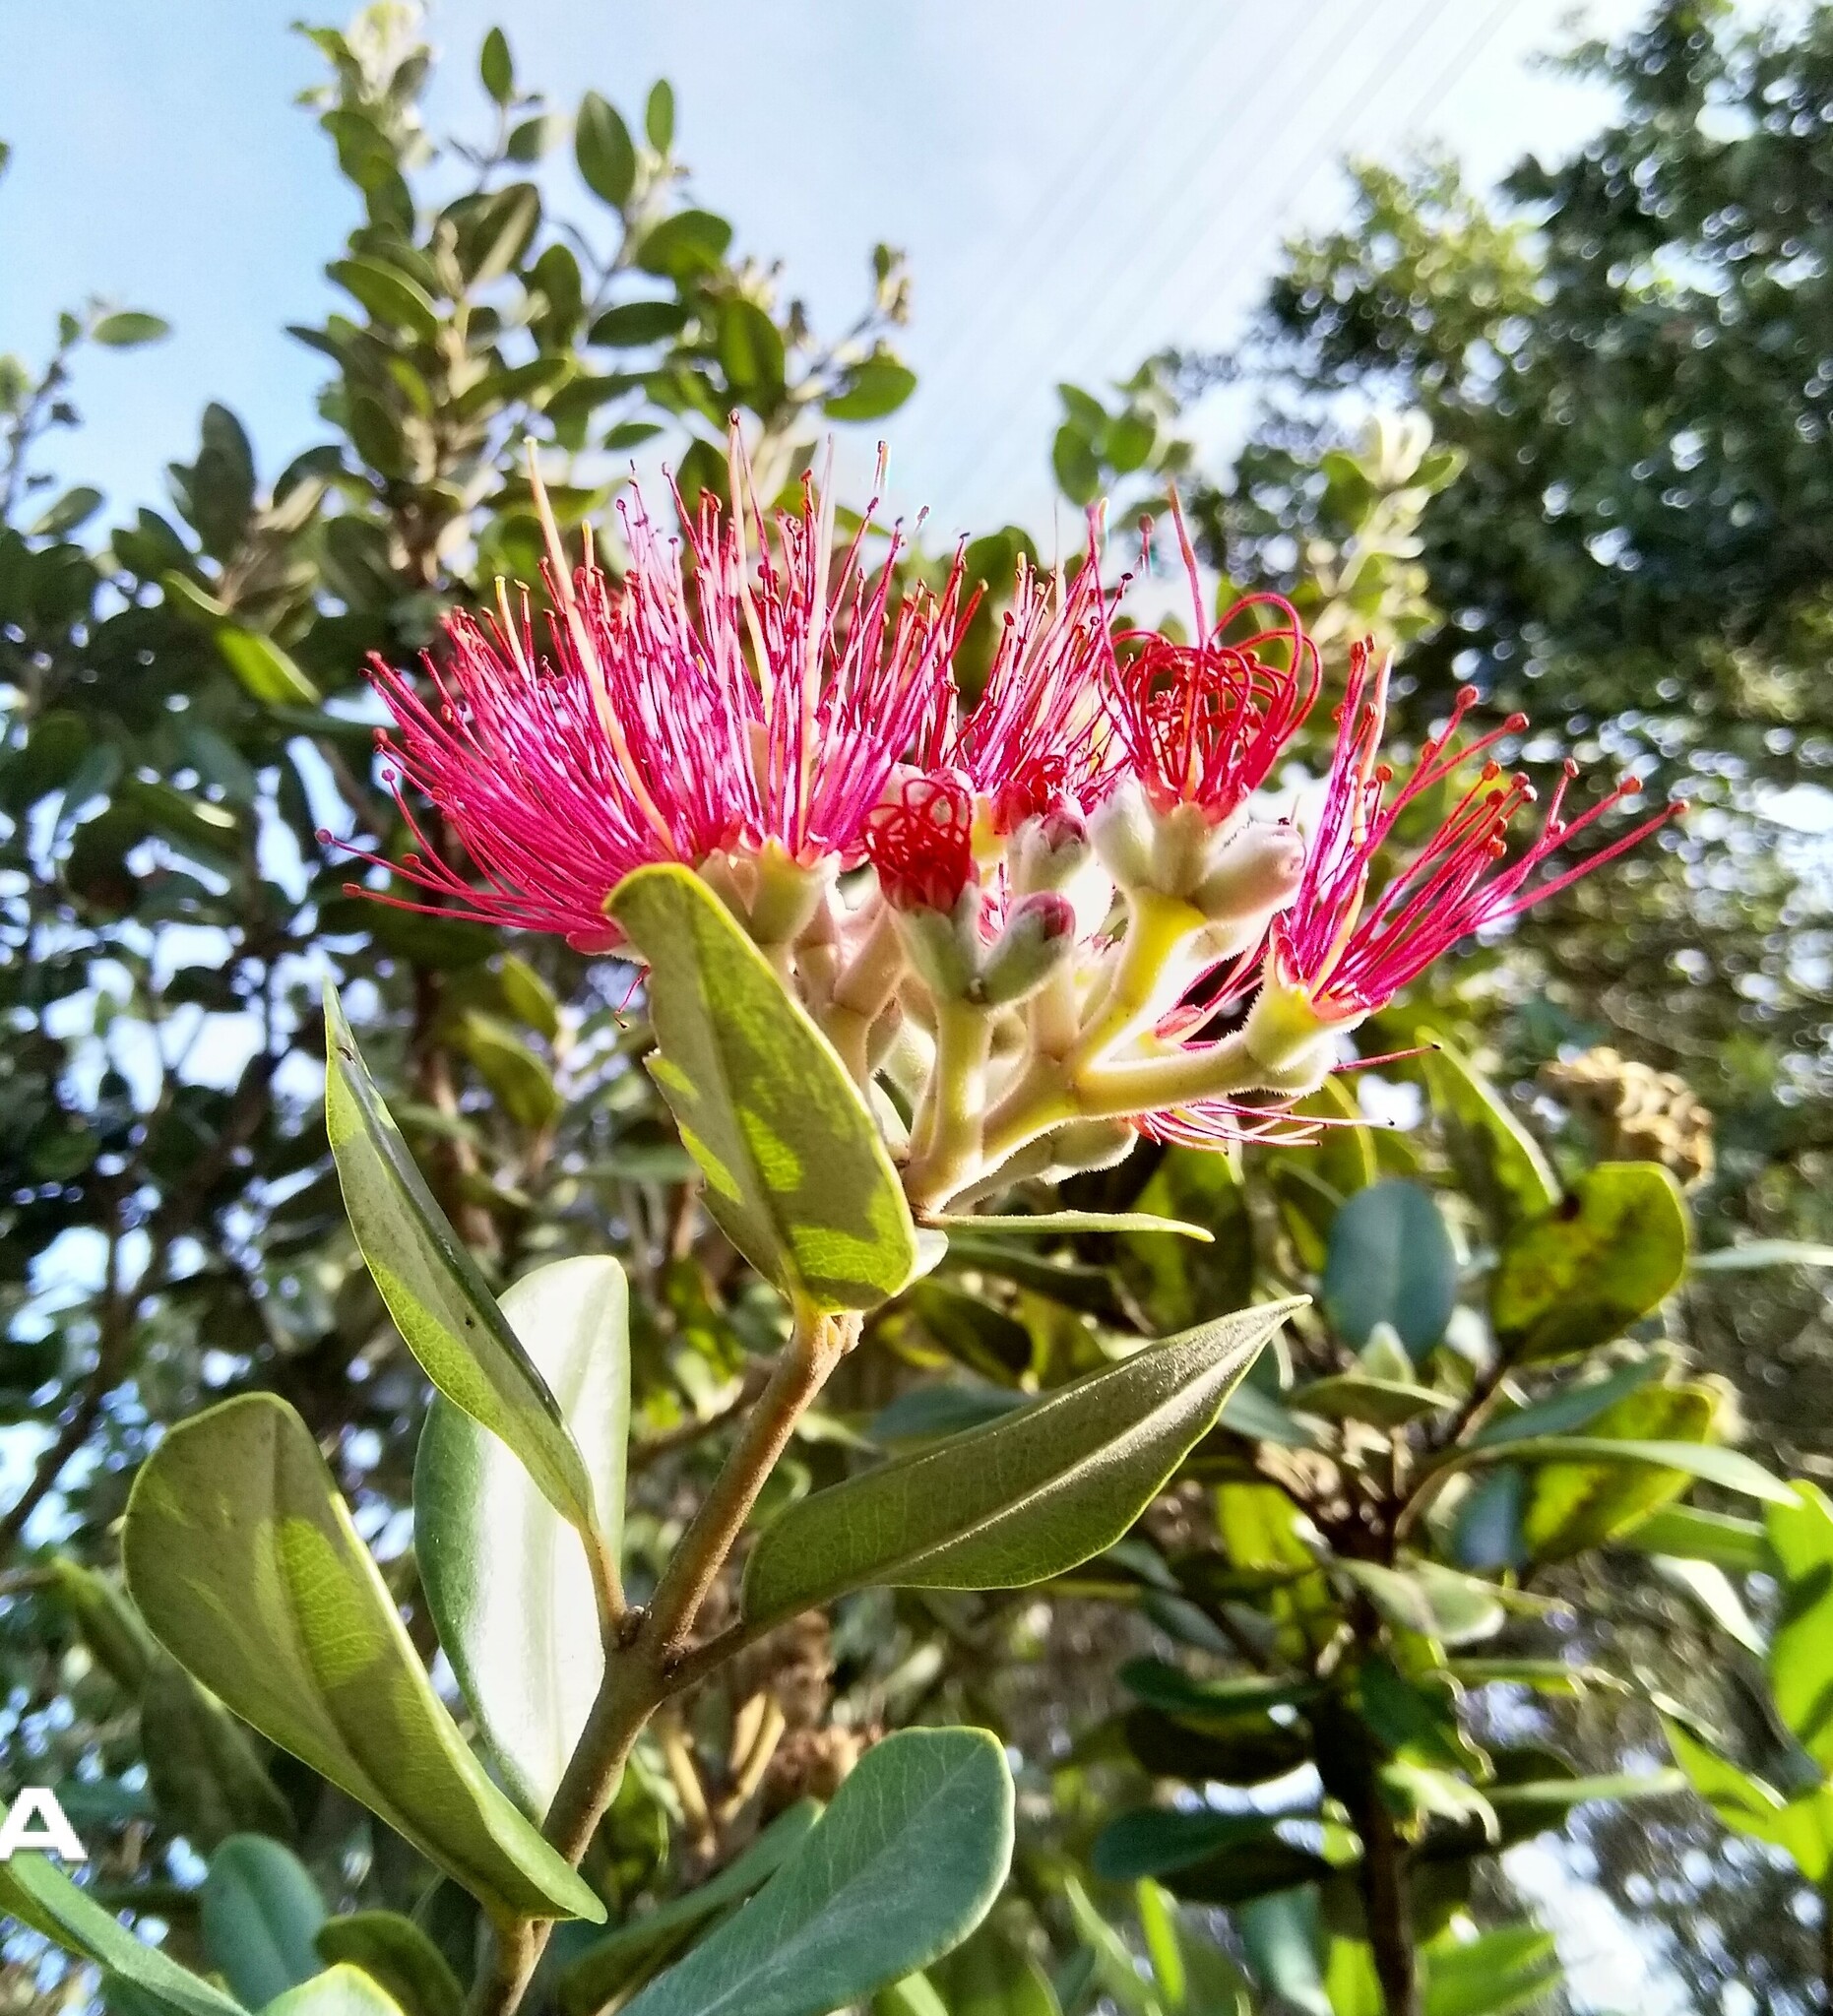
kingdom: Plantae
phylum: Tracheophyta
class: Magnoliopsida
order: Myrtales
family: Myrtaceae
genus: Metrosideros
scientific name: Metrosideros excelsa
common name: New zealand christmastree
